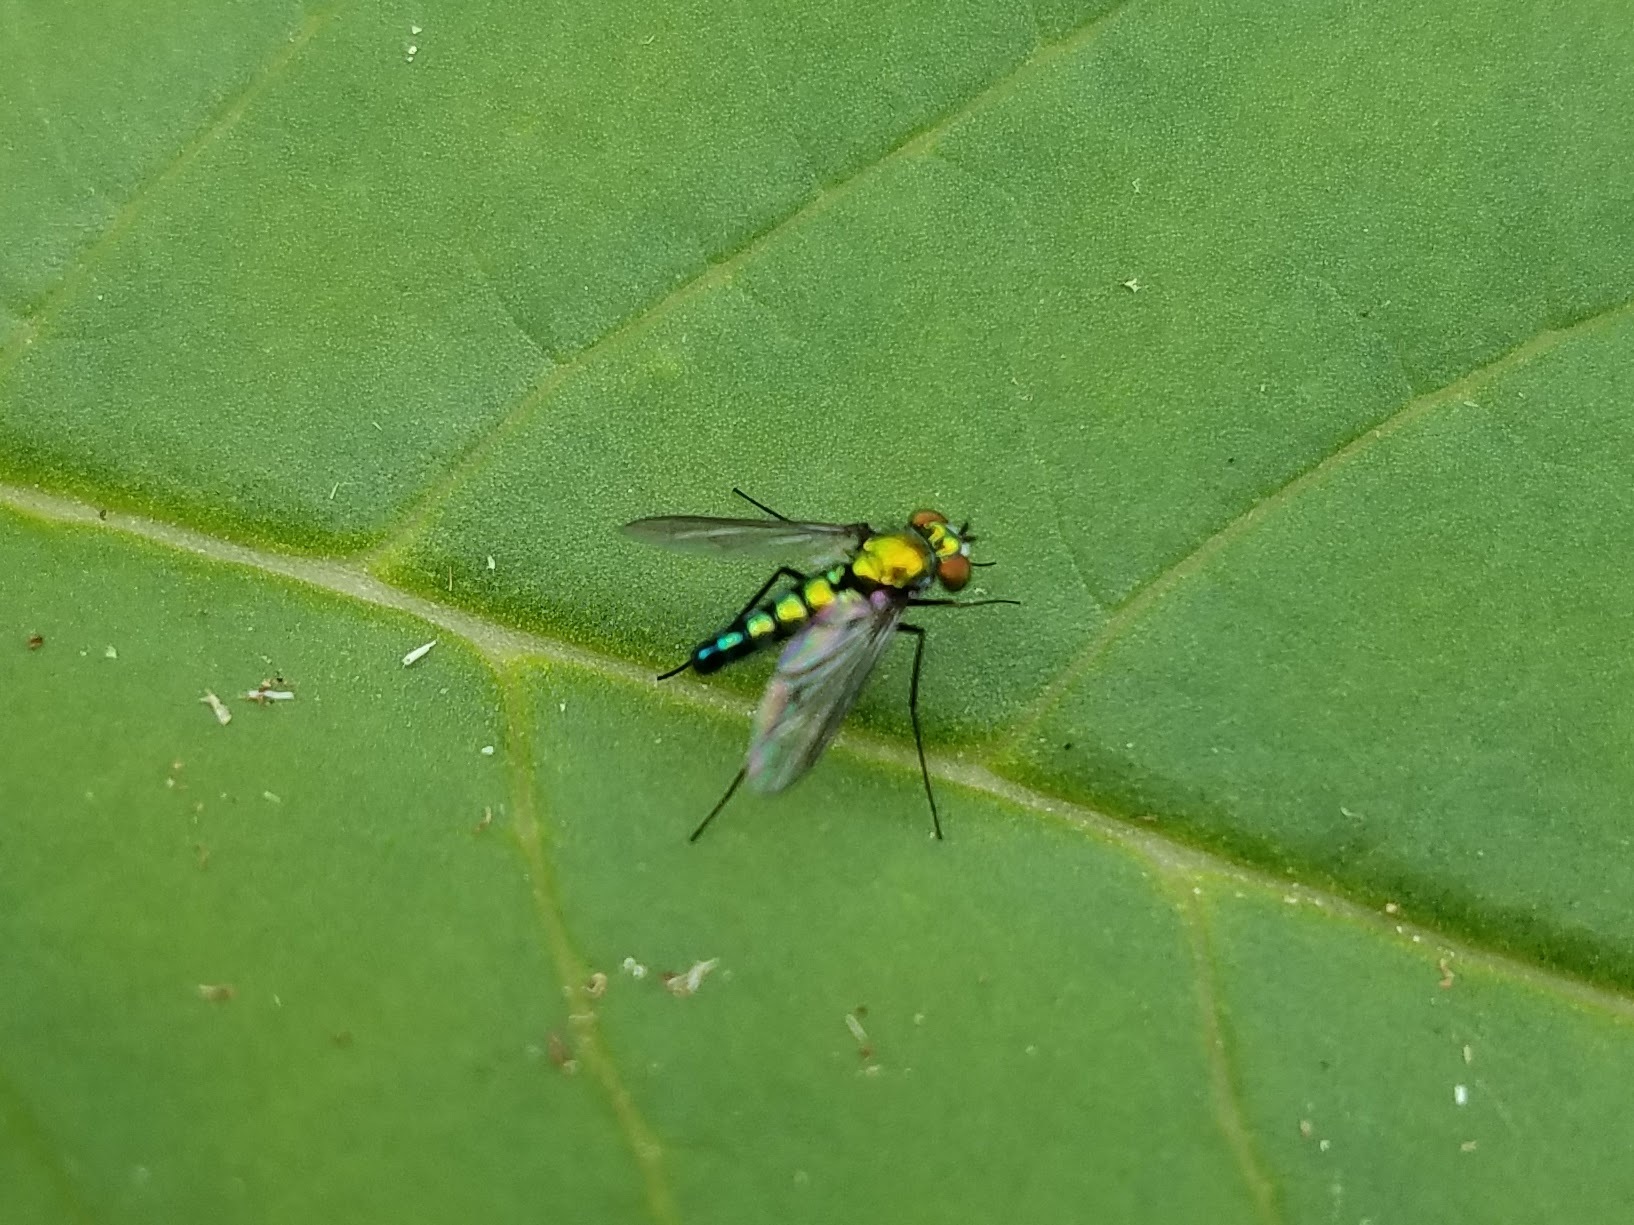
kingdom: Animalia
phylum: Arthropoda
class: Insecta
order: Diptera
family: Dolichopodidae
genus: Condylostylus
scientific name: Condylostylus longicornis
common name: Long-legged fly
